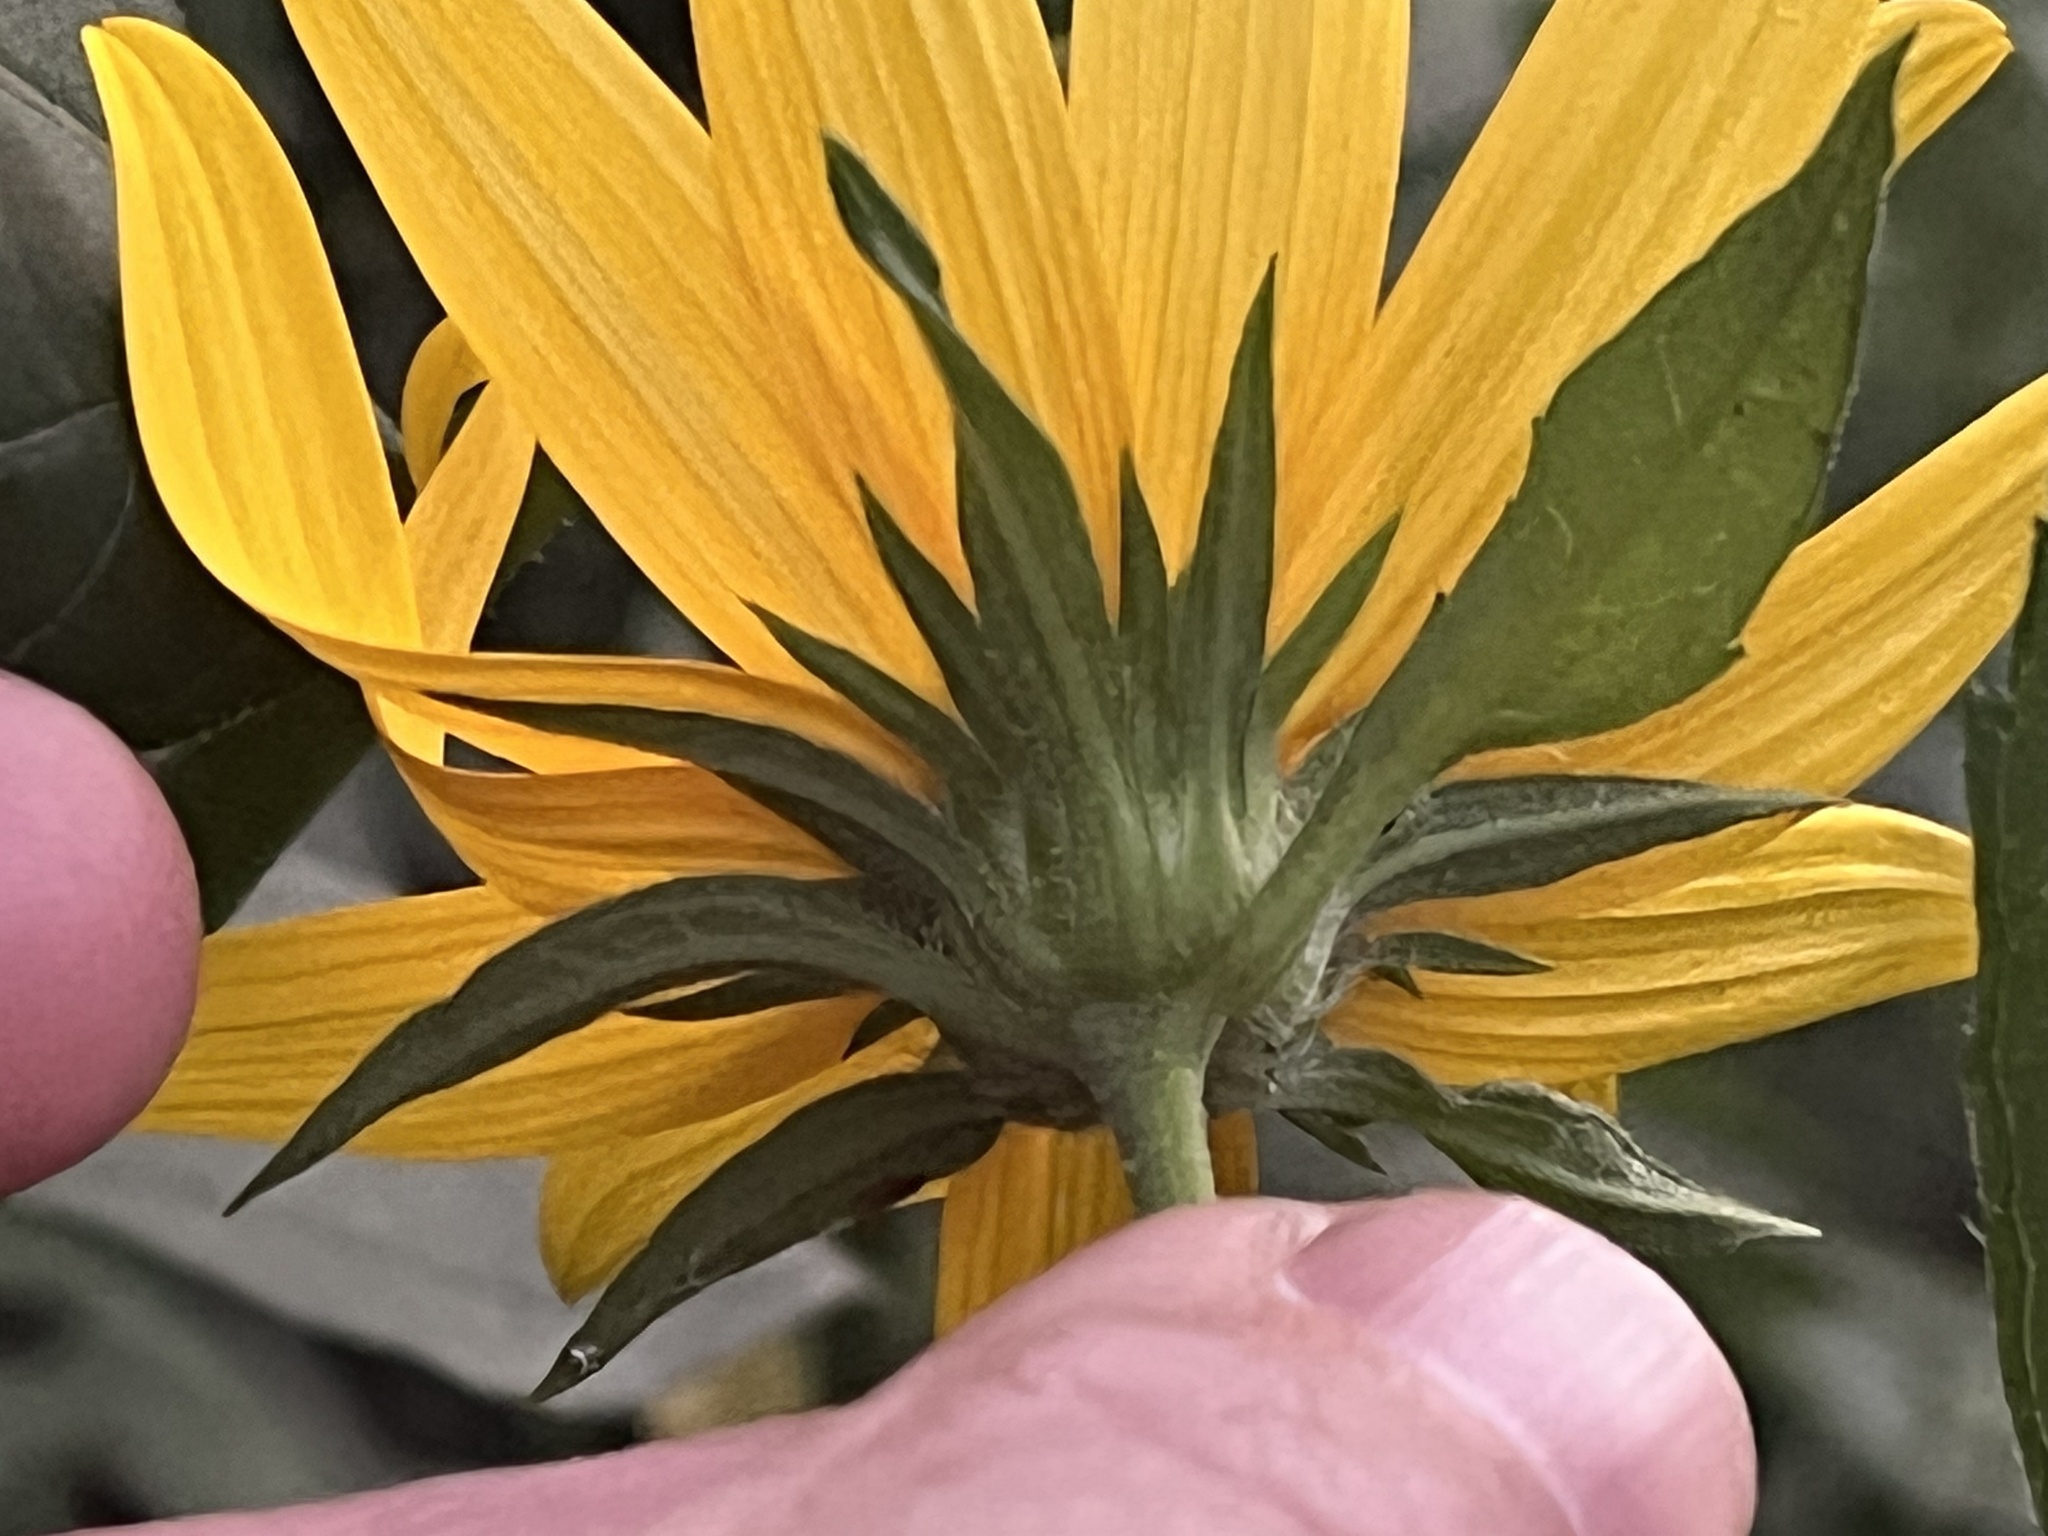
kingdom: Plantae
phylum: Tracheophyta
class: Magnoliopsida
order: Asterales
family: Asteraceae
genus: Helianthus
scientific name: Helianthus tuberosus
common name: Jerusalem artichoke
